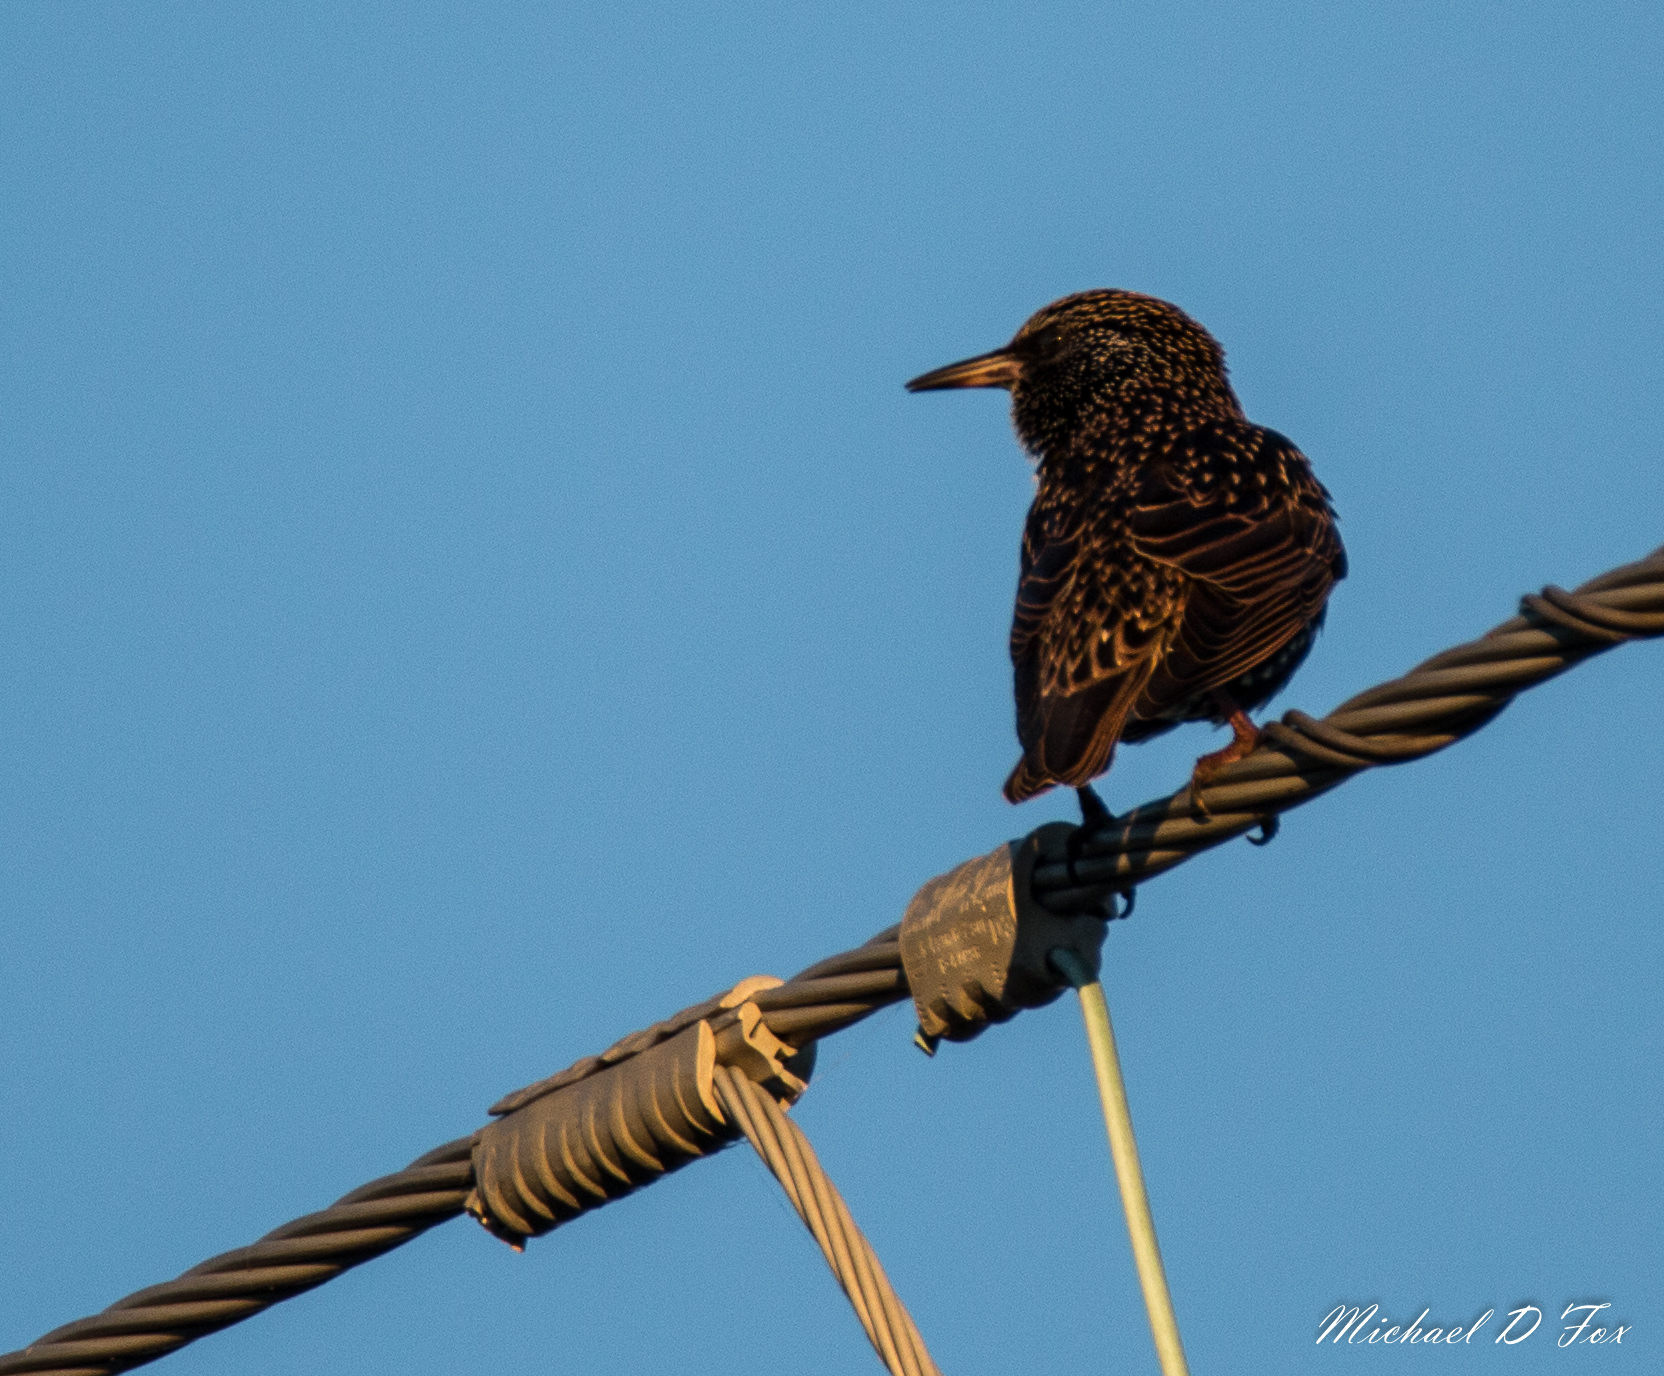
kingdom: Animalia
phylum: Chordata
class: Aves
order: Passeriformes
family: Sturnidae
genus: Sturnus
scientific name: Sturnus vulgaris
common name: Common starling
